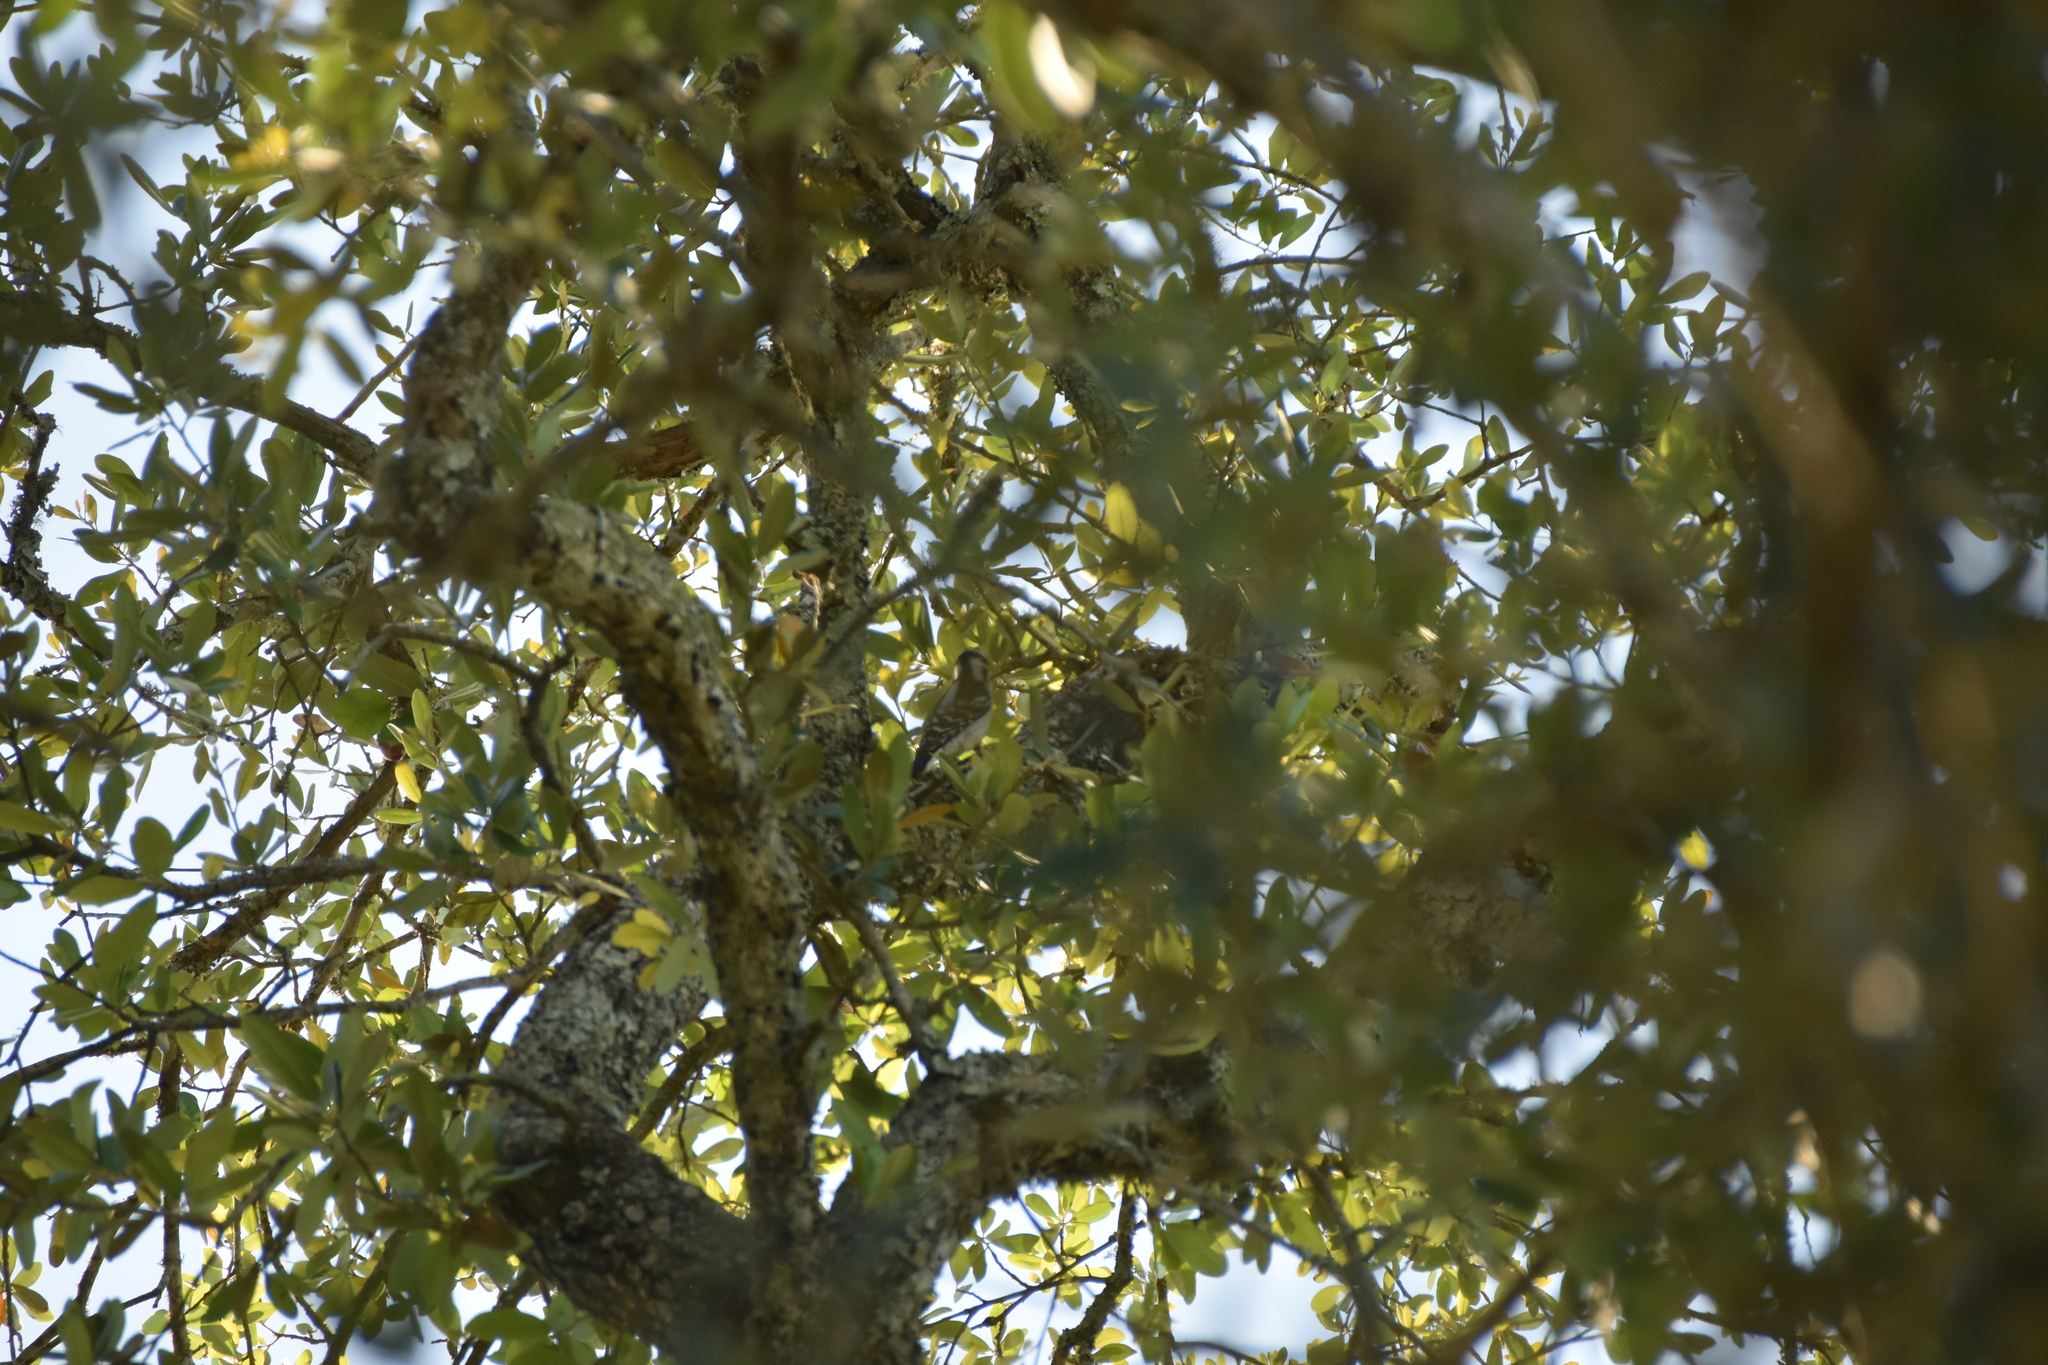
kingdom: Animalia
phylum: Chordata
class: Aves
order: Piciformes
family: Picidae
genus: Dryobates
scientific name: Dryobates pubescens
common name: Downy woodpecker
